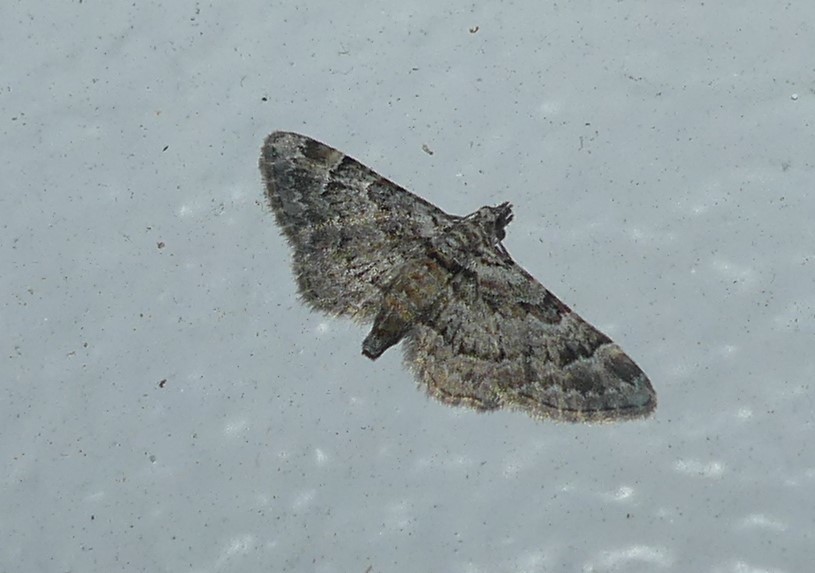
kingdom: Animalia
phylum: Arthropoda
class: Insecta
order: Lepidoptera
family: Geometridae
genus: Gymnoscelis
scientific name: Gymnoscelis rufifasciata
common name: Double-striped pug
